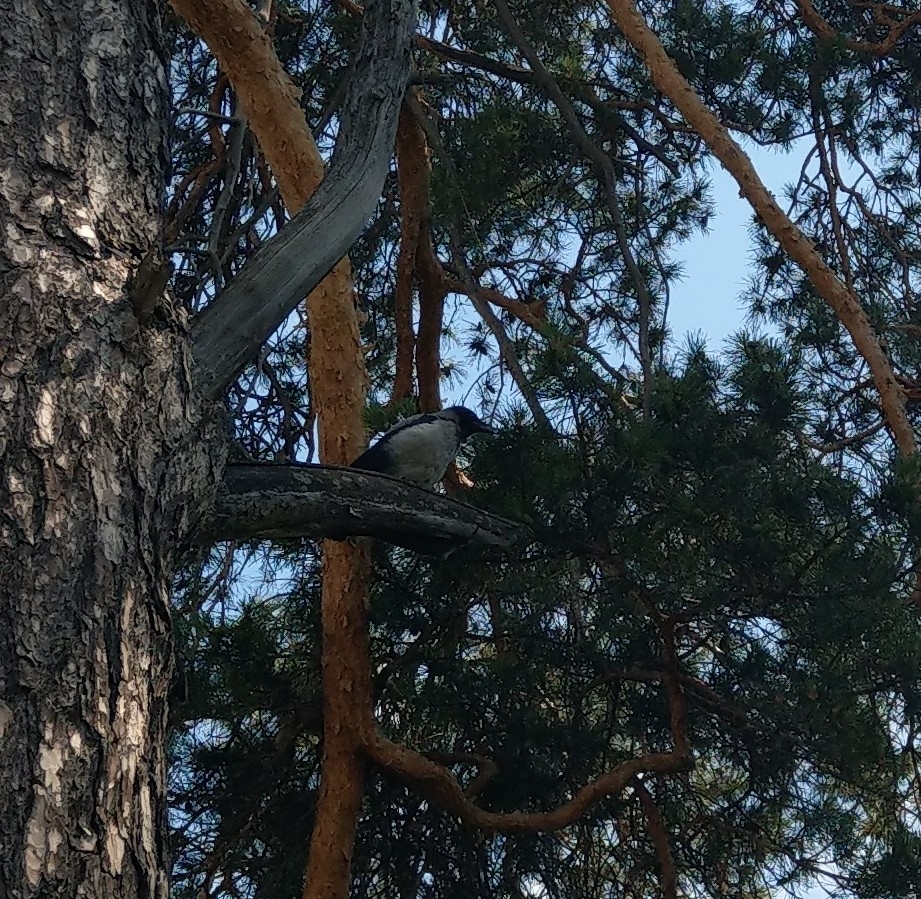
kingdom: Animalia
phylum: Chordata
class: Aves
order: Passeriformes
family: Corvidae
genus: Corvus
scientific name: Corvus cornix
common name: Hooded crow
